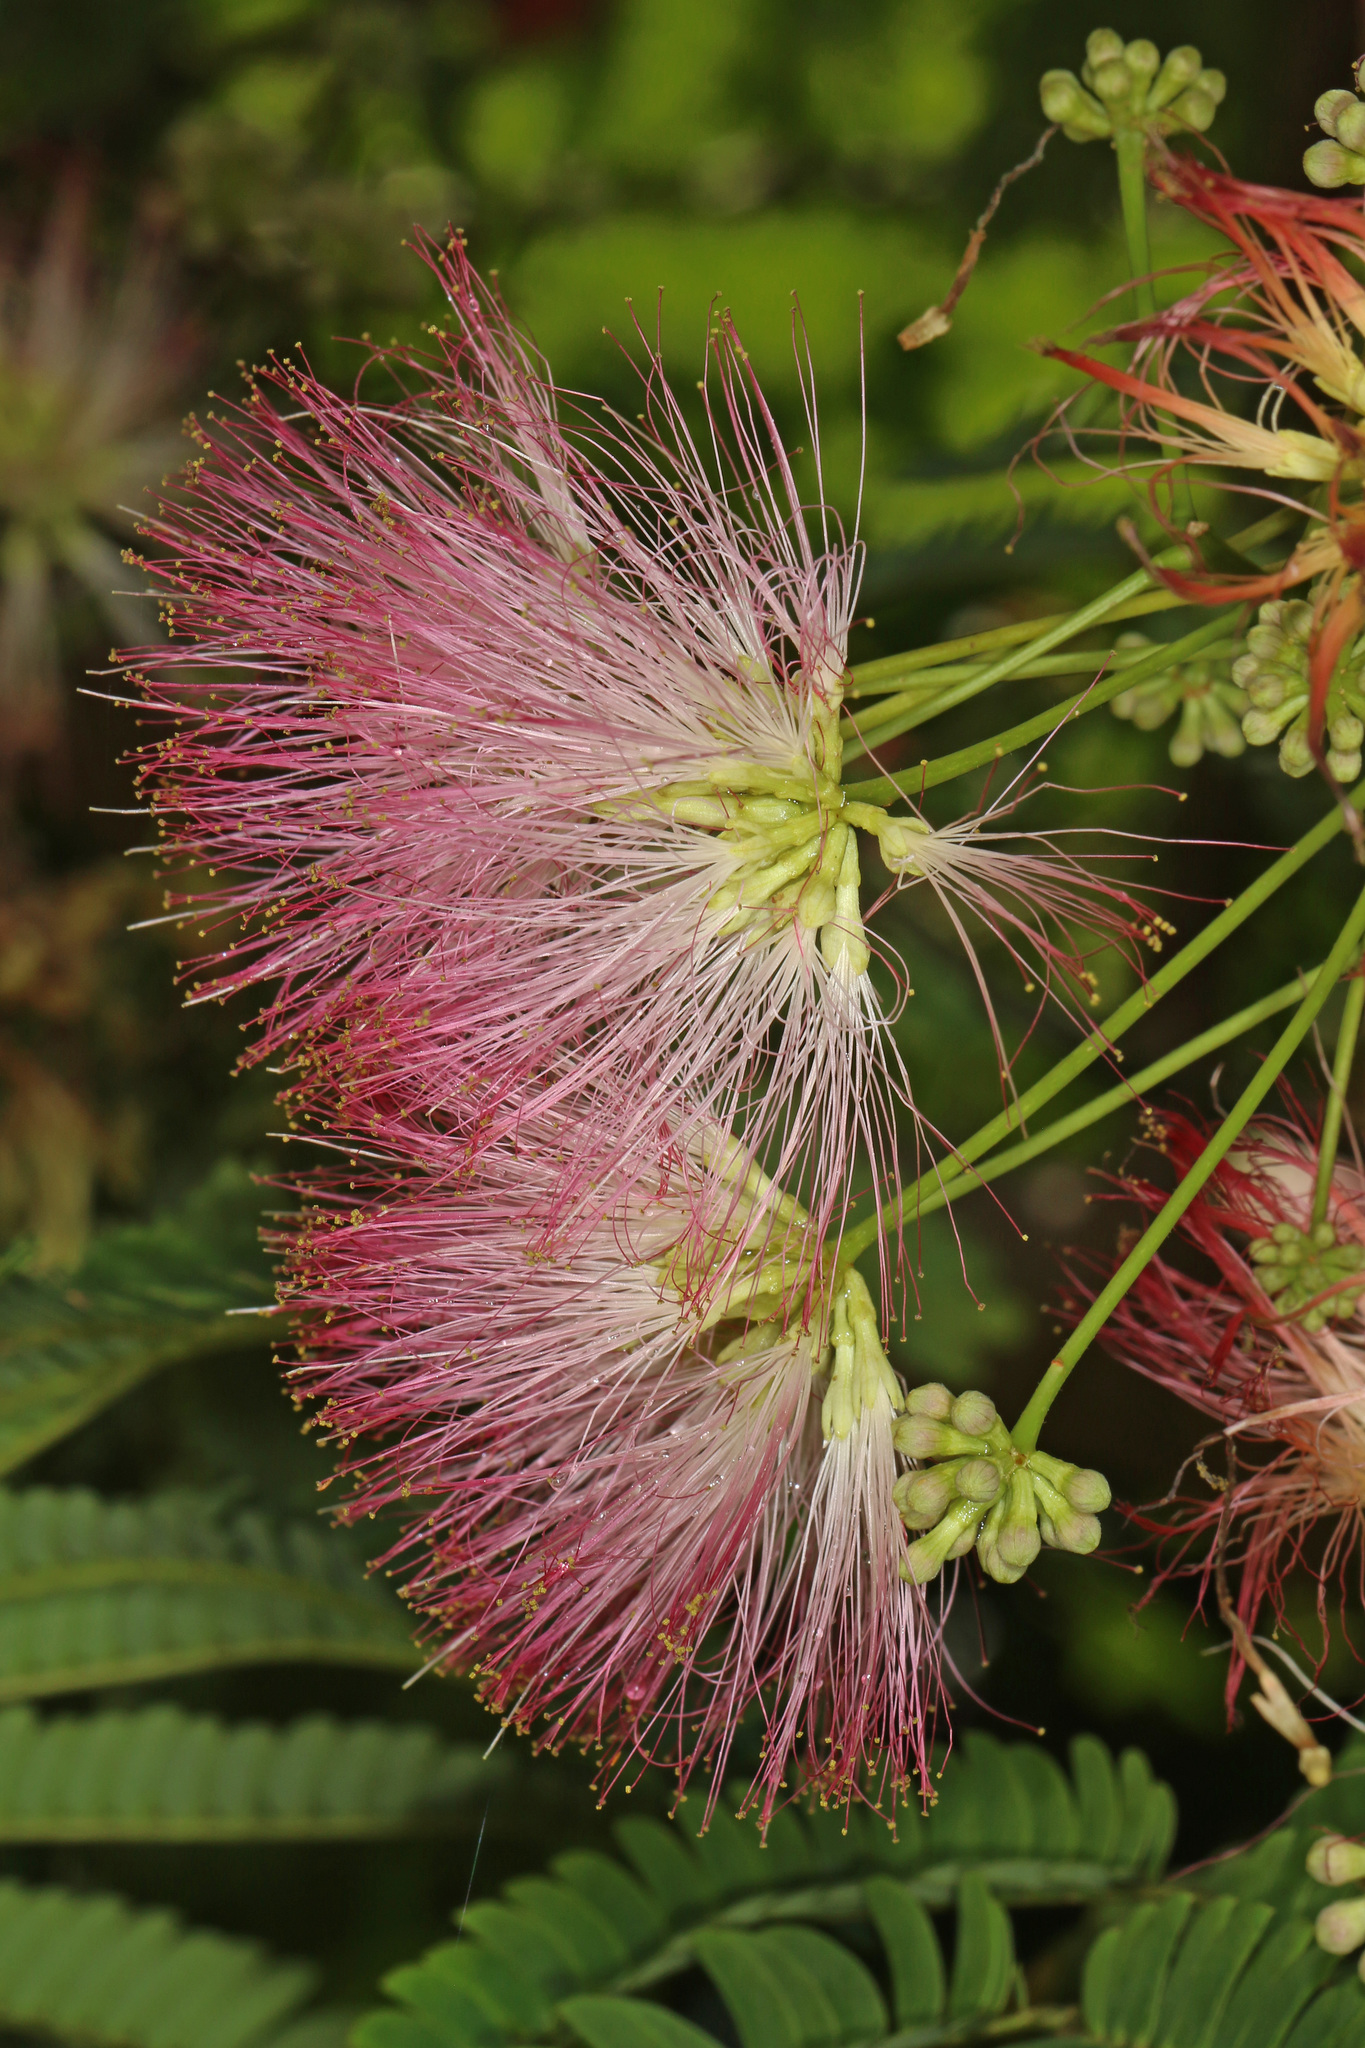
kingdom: Plantae
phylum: Tracheophyta
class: Magnoliopsida
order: Fabales
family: Fabaceae
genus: Albizia
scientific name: Albizia julibrissin
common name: Silktree
